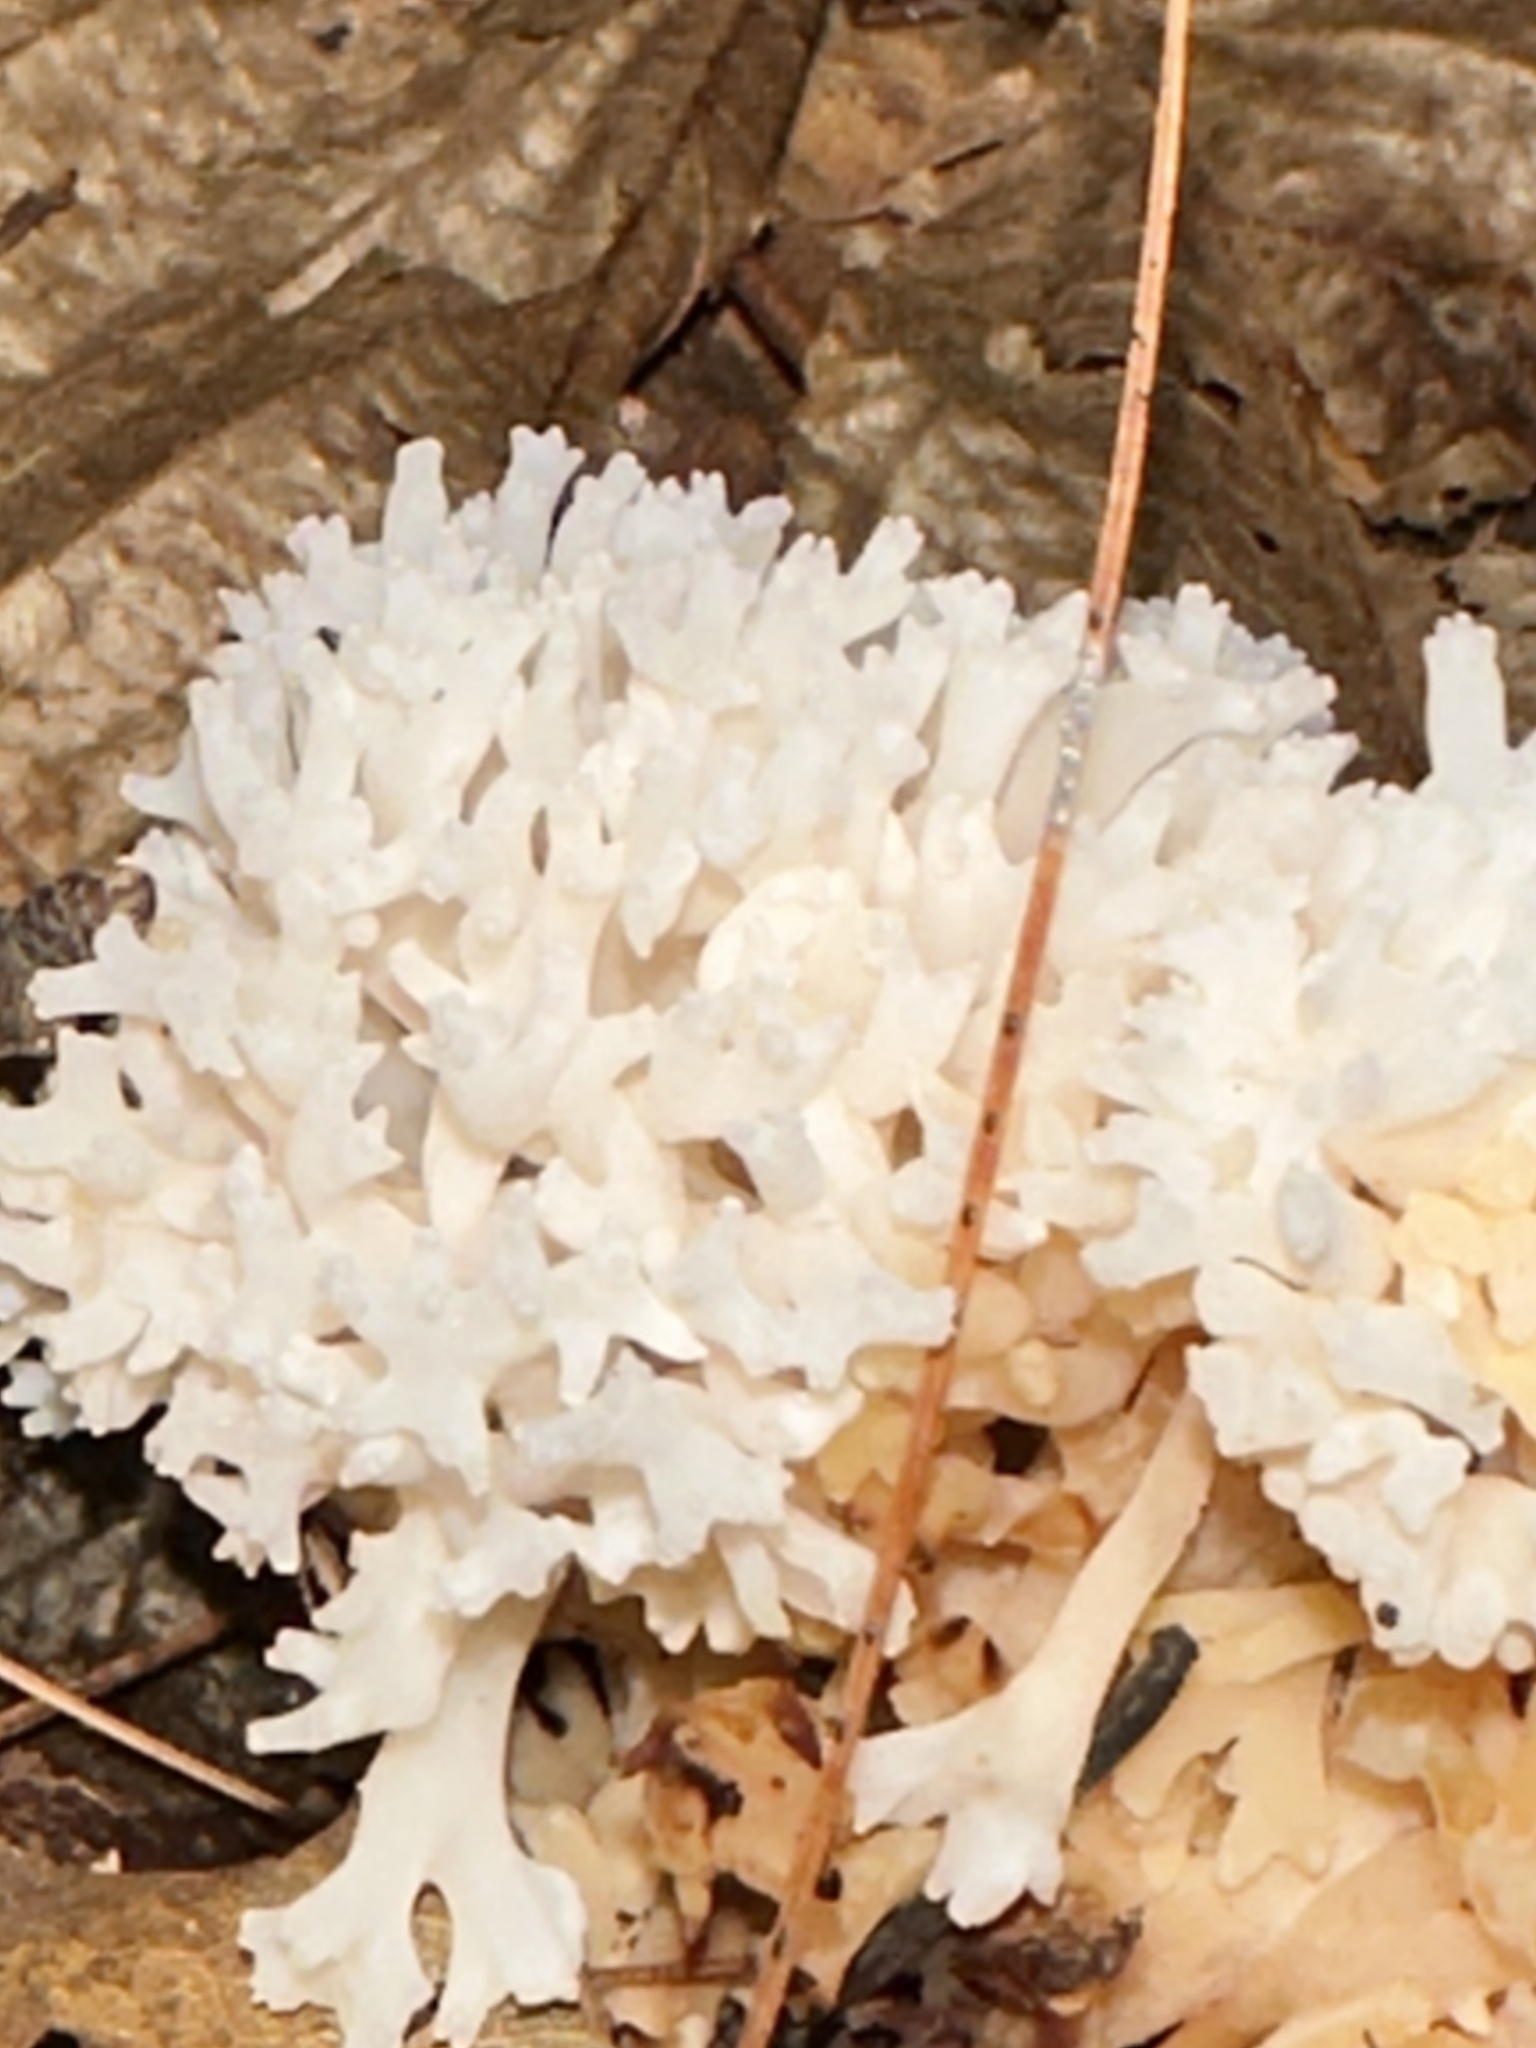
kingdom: Fungi
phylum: Basidiomycota
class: Agaricomycetes
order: Agaricales
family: Clavariaceae
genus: Ramariopsis
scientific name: Ramariopsis kunzei
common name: Ivory coral
